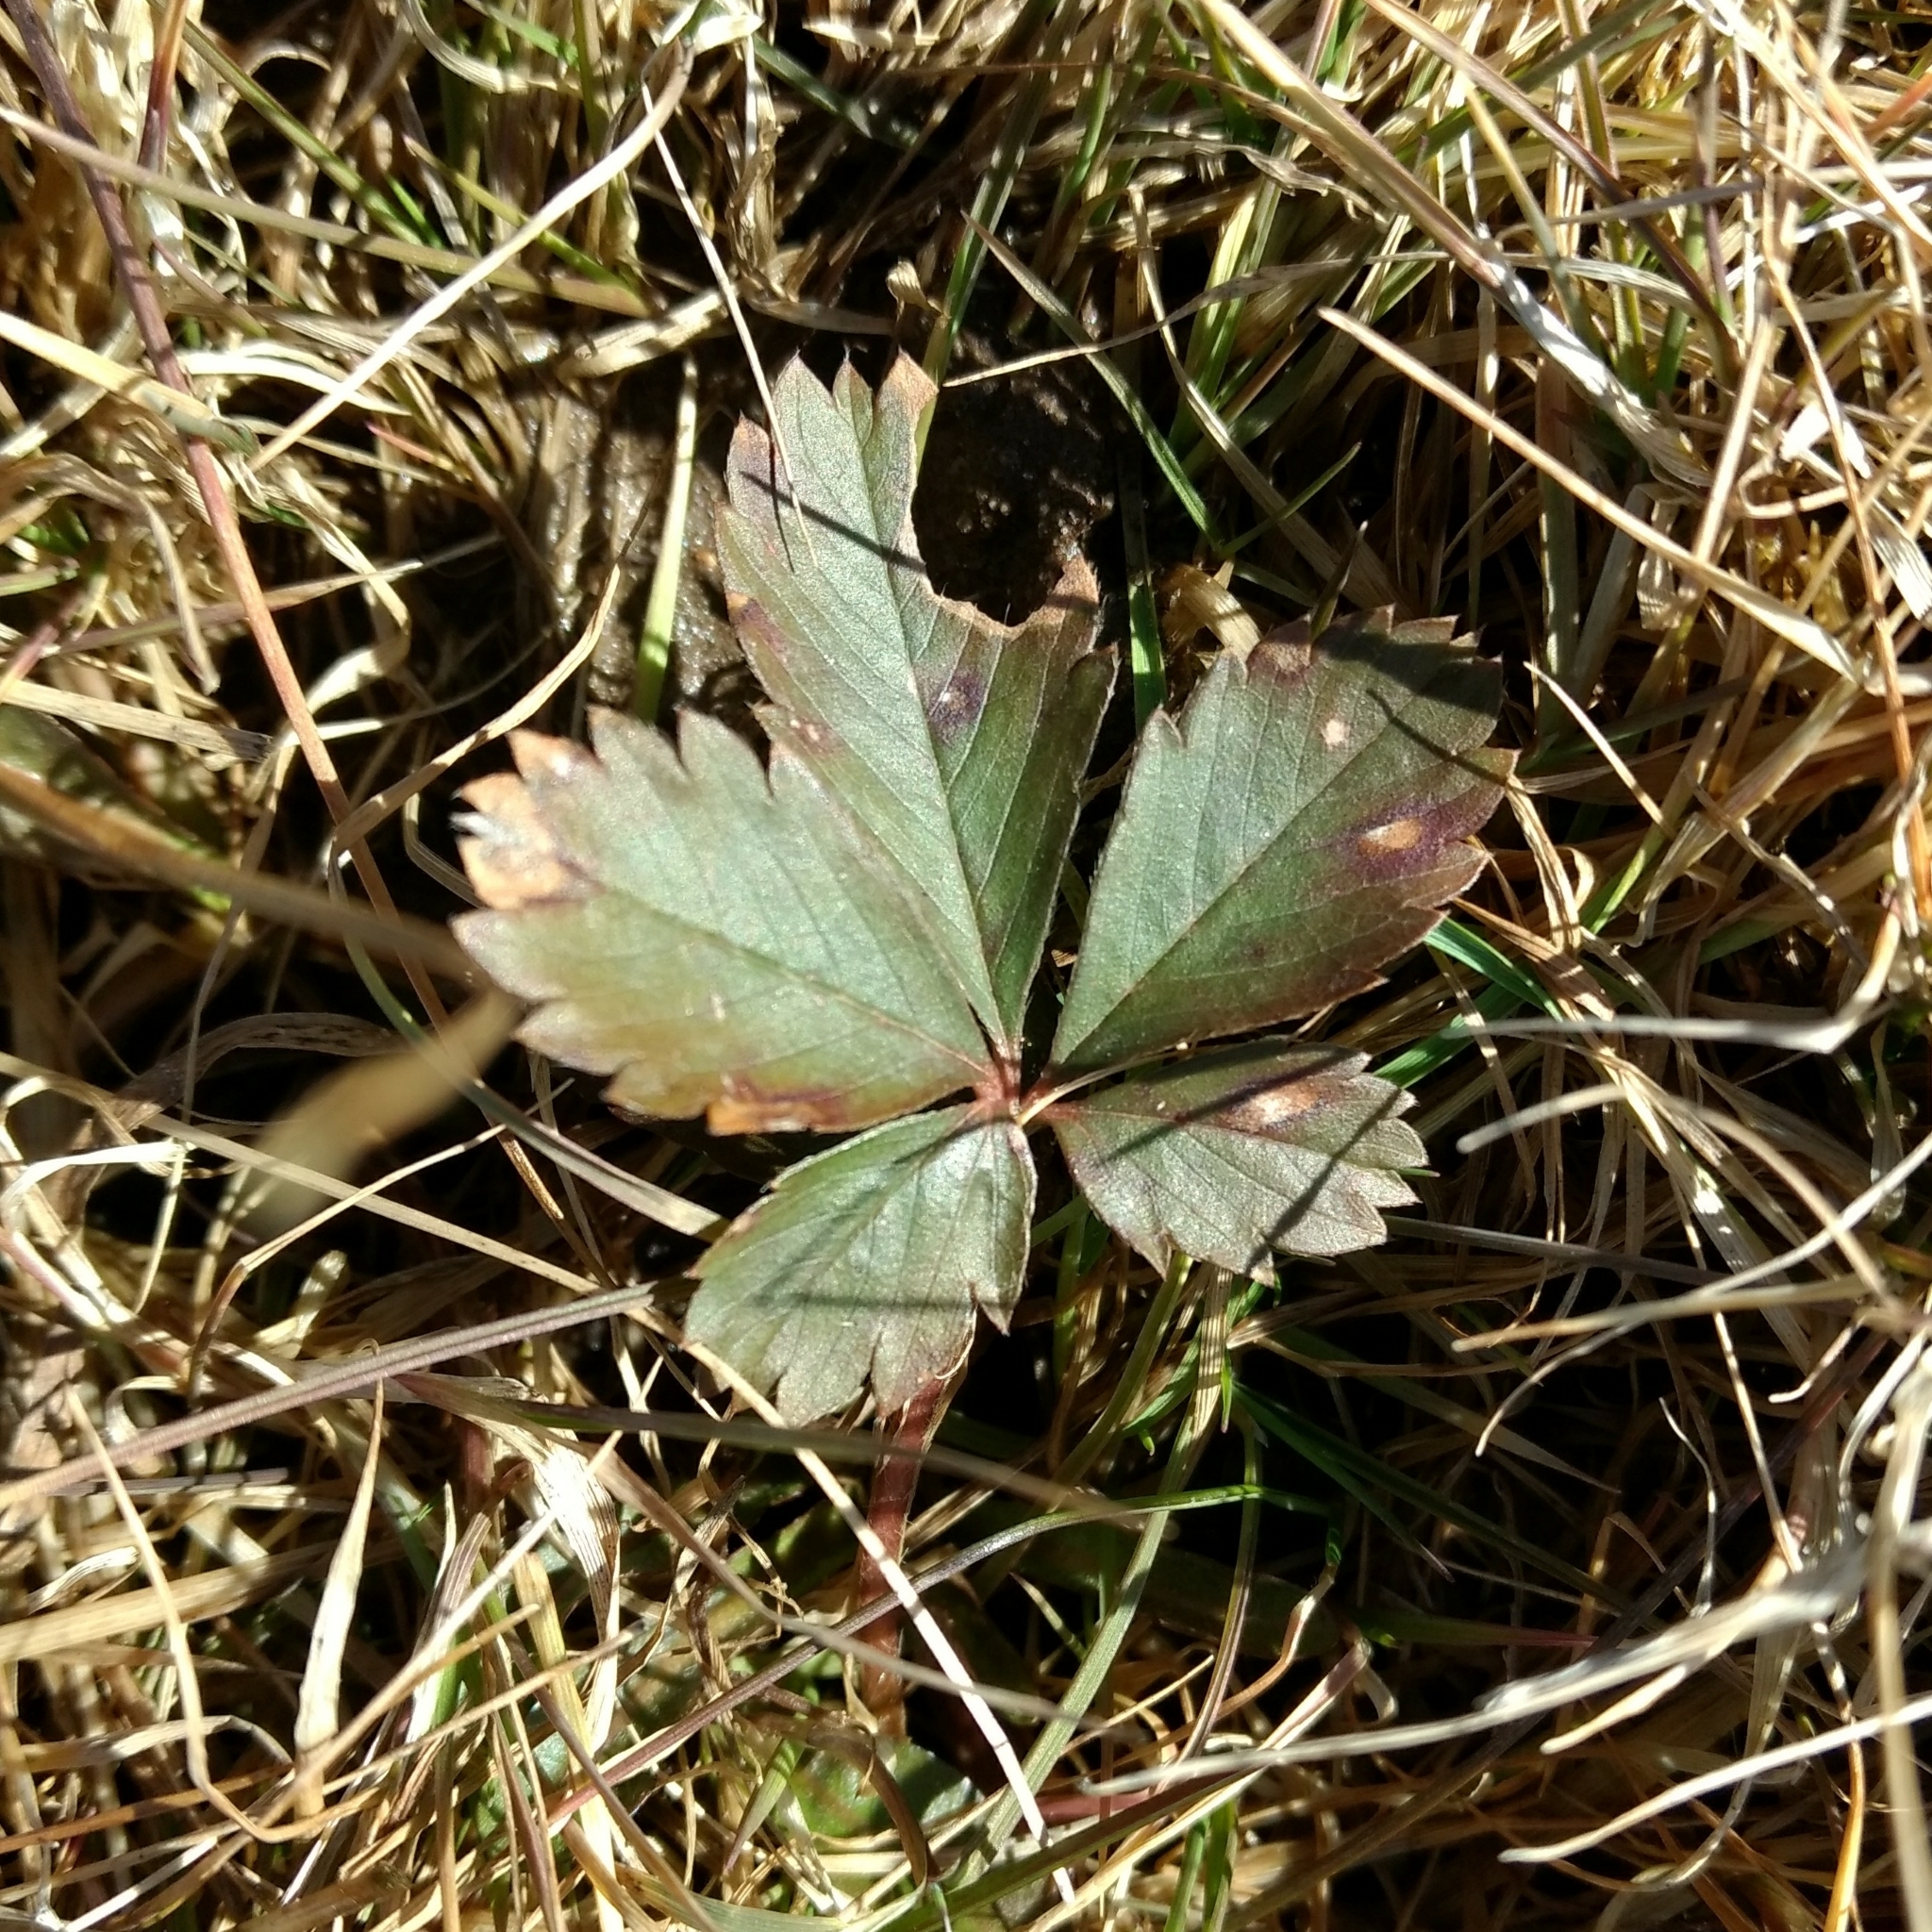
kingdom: Plantae
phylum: Tracheophyta
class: Magnoliopsida
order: Rosales
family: Rosaceae
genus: Potentilla
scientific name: Potentilla canadensis
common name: Canada cinquefoil
